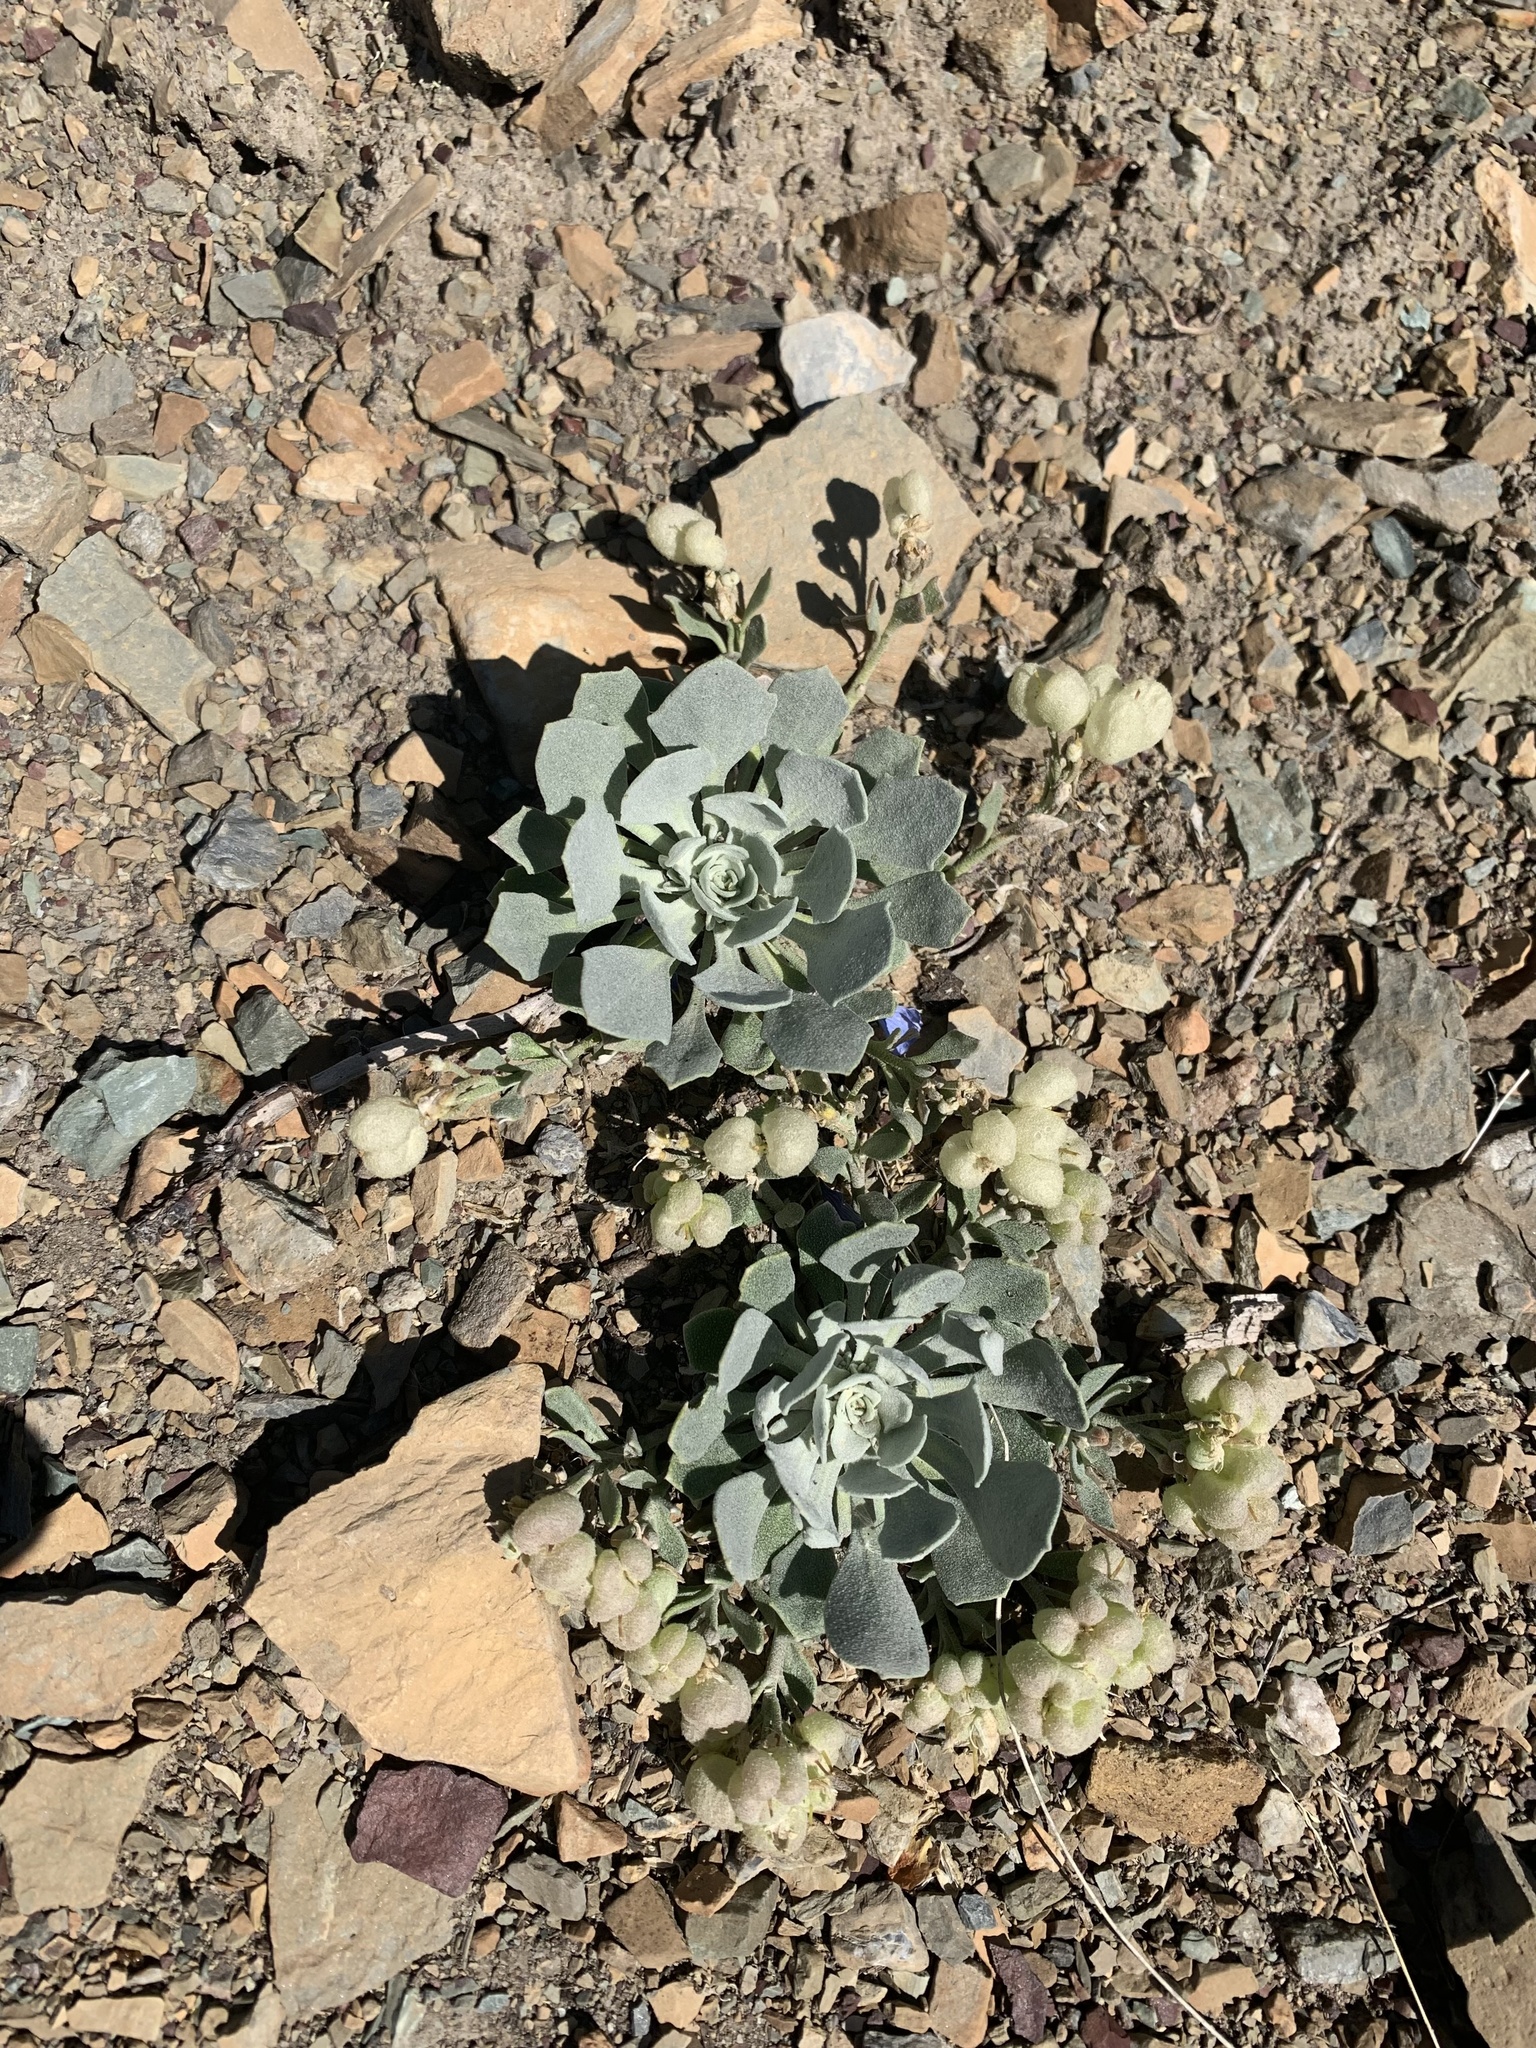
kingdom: Plantae
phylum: Tracheophyta
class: Magnoliopsida
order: Brassicales
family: Brassicaceae
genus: Physaria
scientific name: Physaria didymocarpa
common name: Common twinpod
